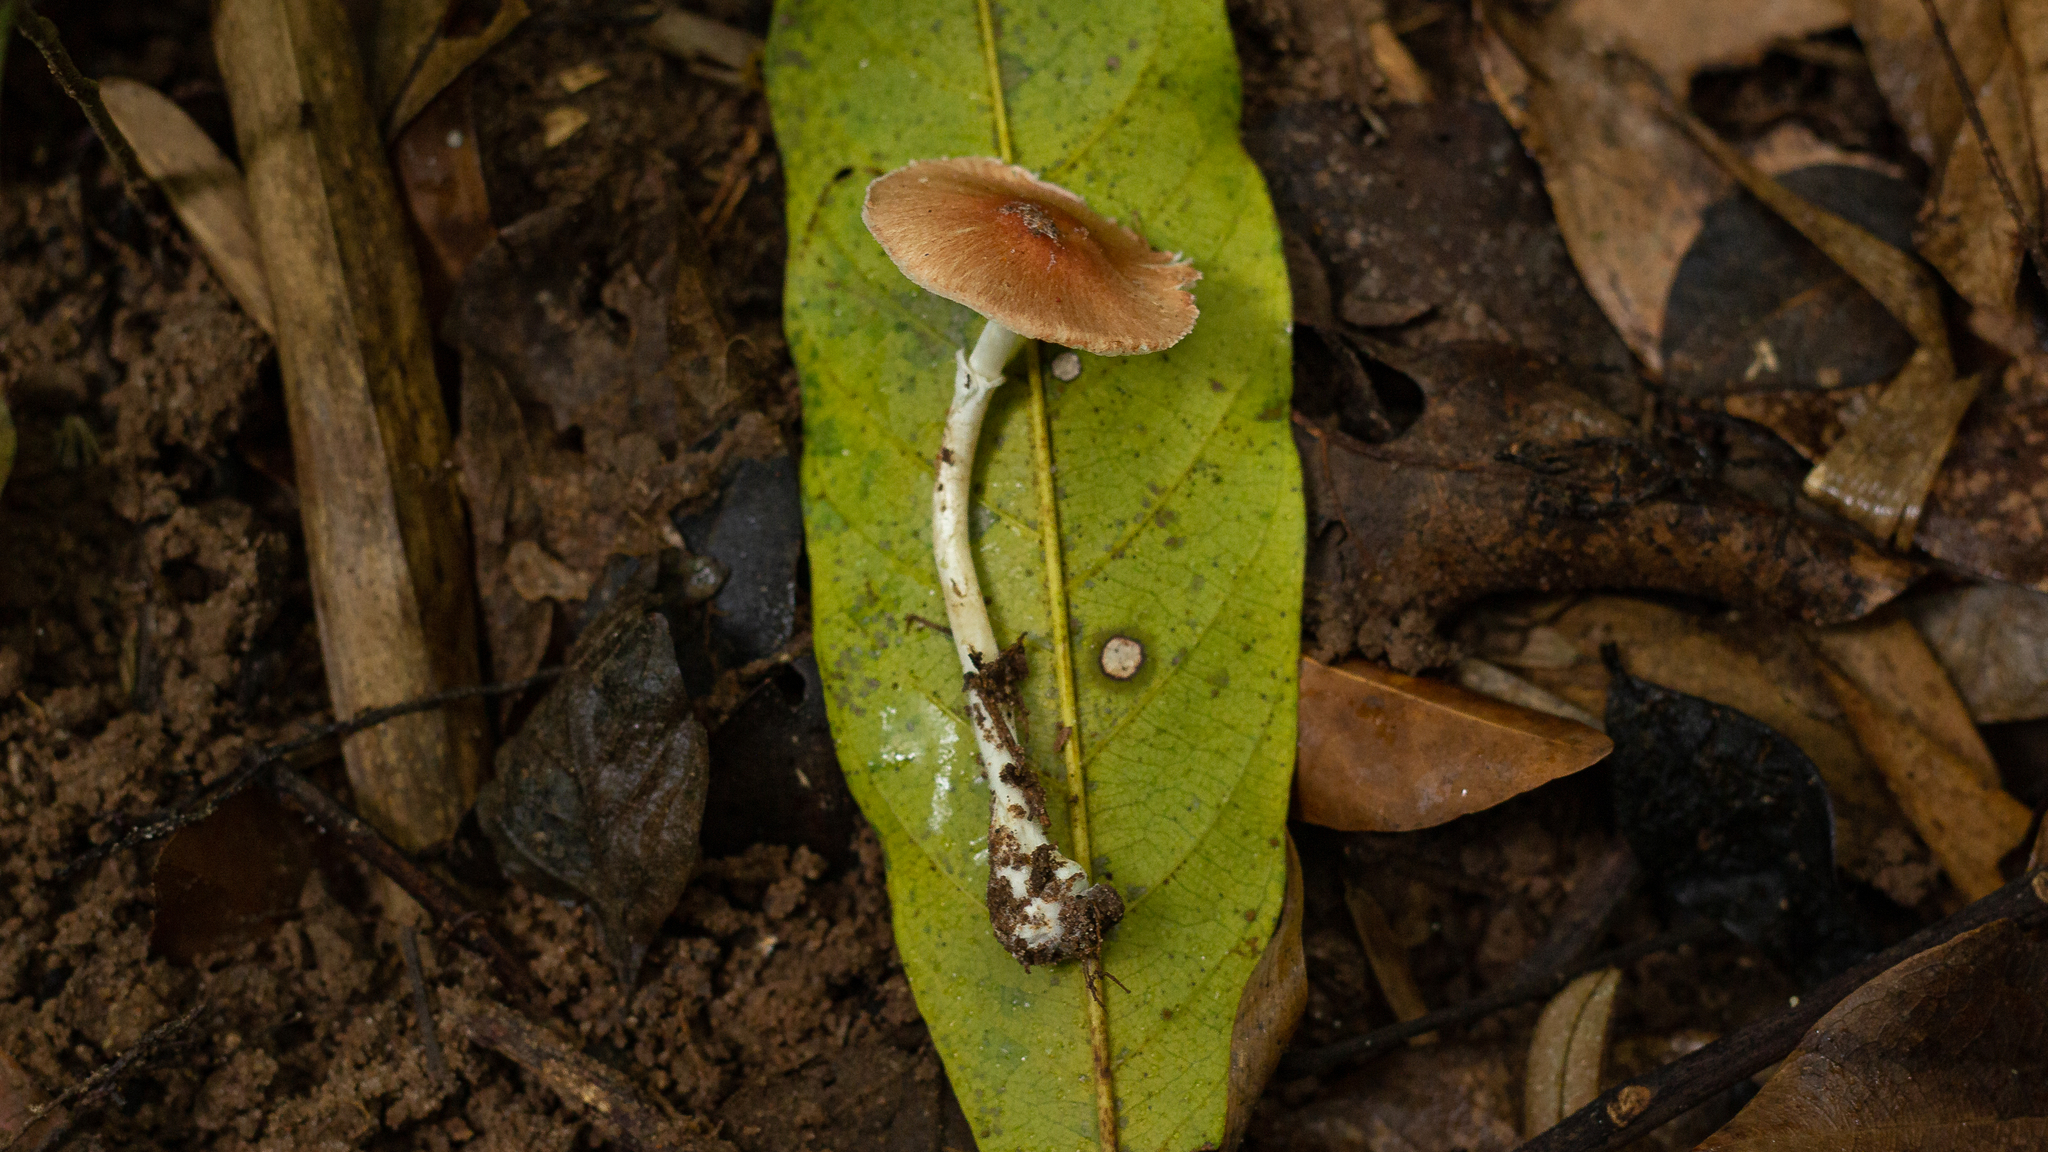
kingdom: Fungi
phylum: Basidiomycota
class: Agaricomycetes
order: Agaricales
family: Agaricaceae
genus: Leucoagaricus
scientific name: Leucoagaricus rubrotinctus
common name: Ruby dapperling
